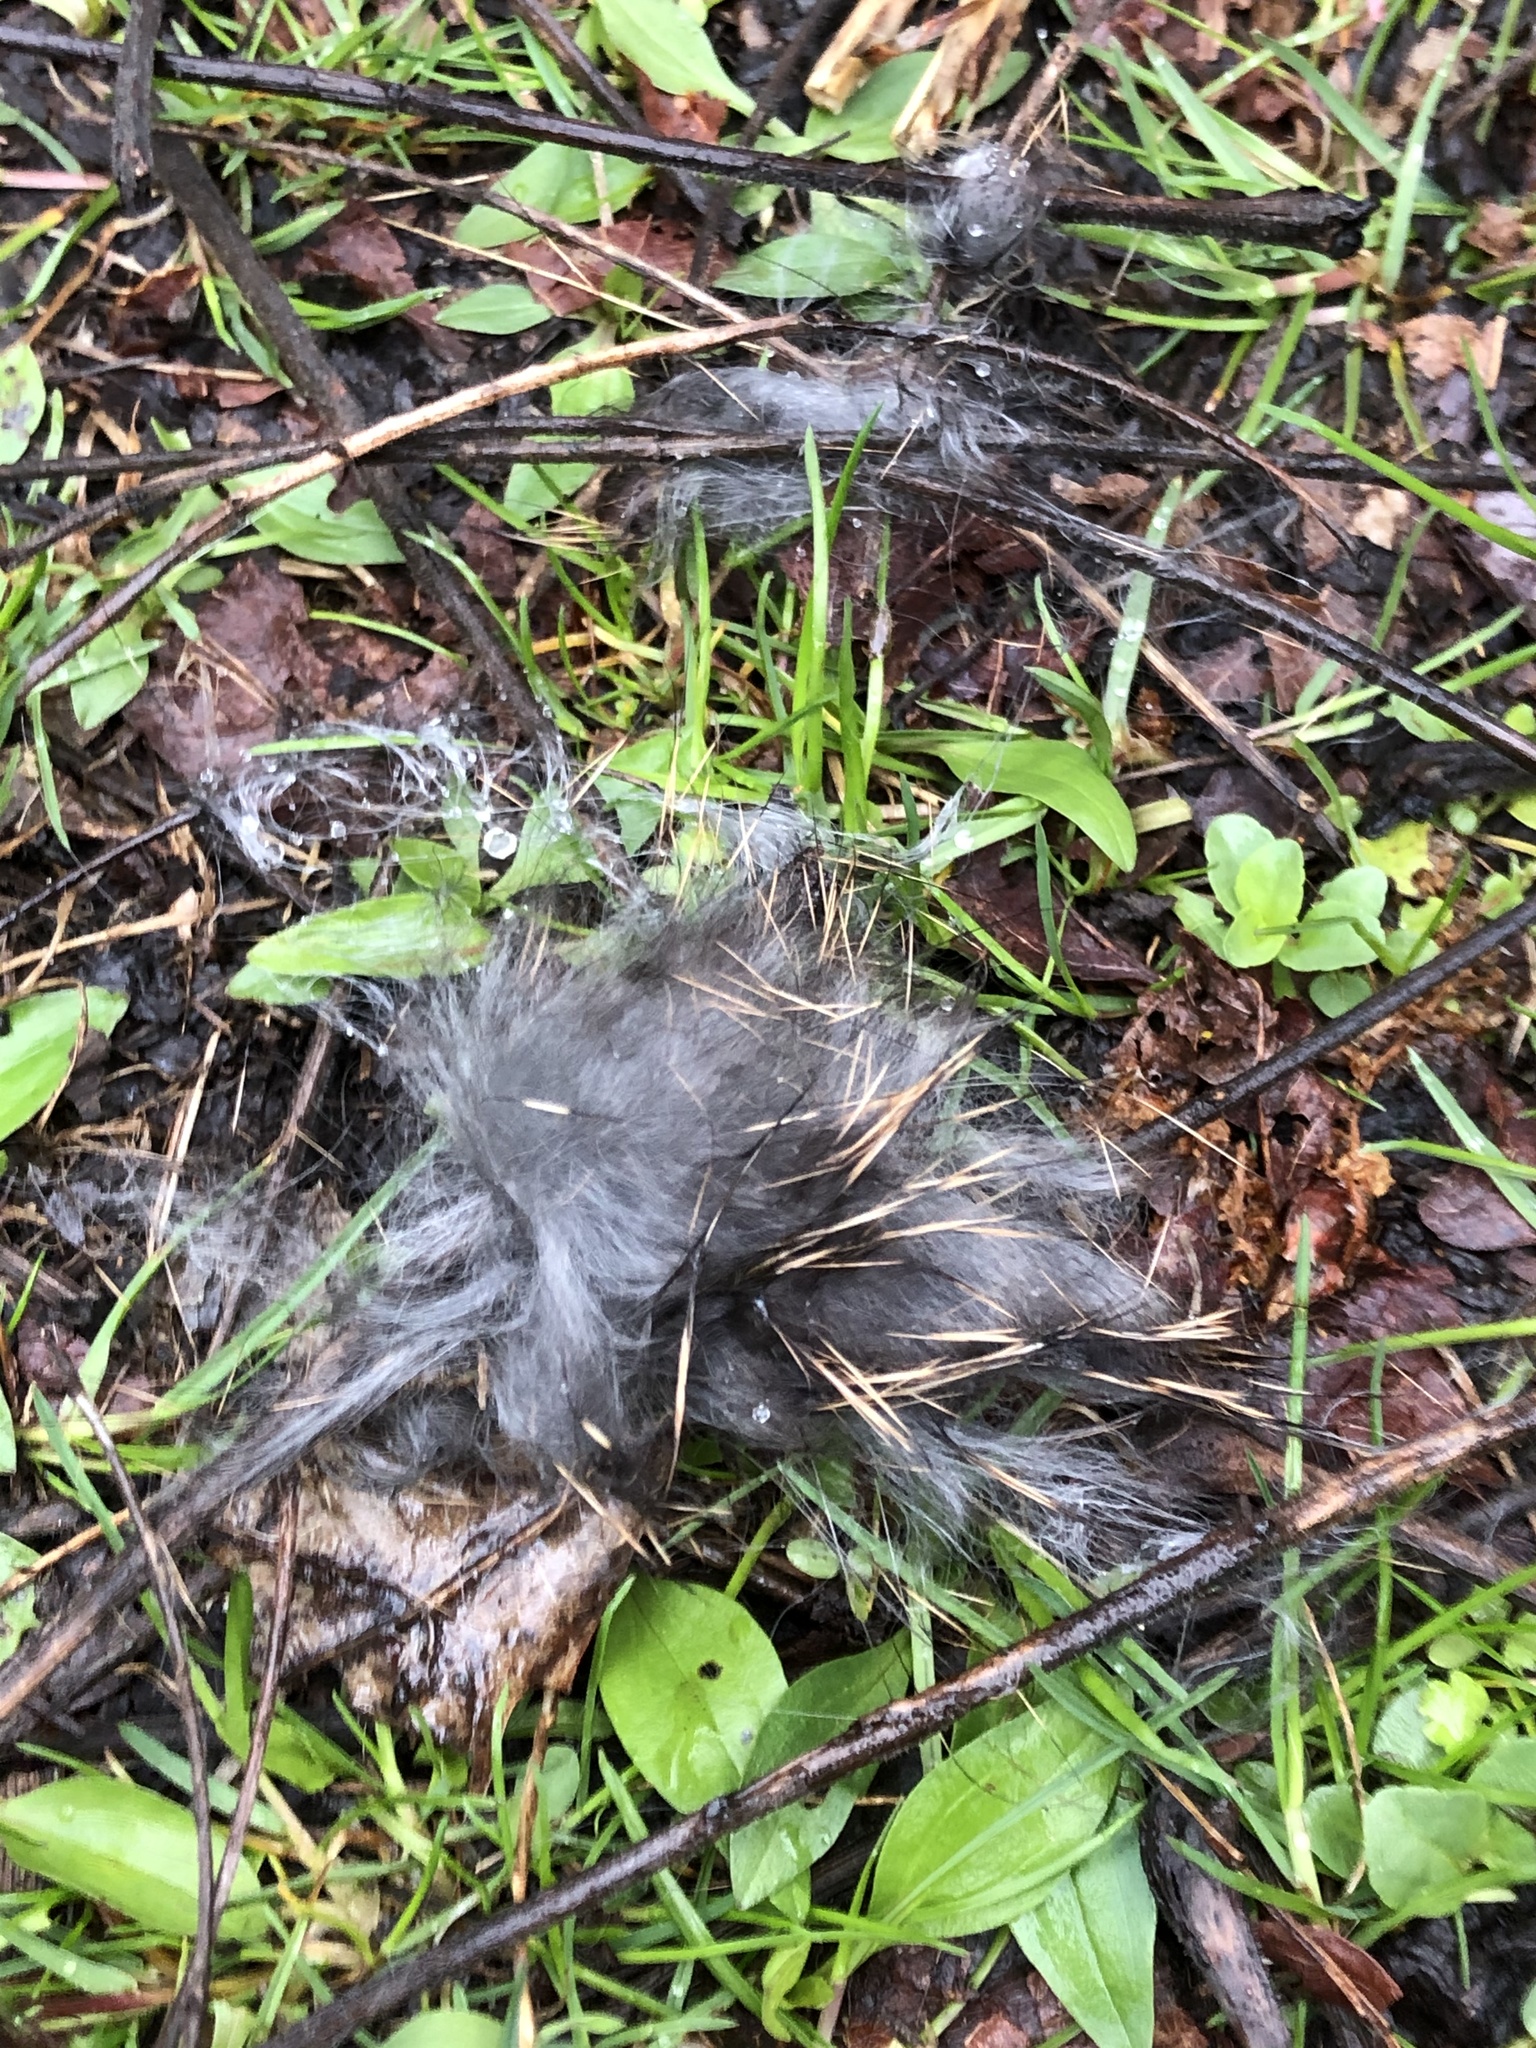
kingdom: Animalia
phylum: Chordata
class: Mammalia
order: Lagomorpha
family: Leporidae
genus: Sylvilagus
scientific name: Sylvilagus floridanus
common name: Eastern cottontail
